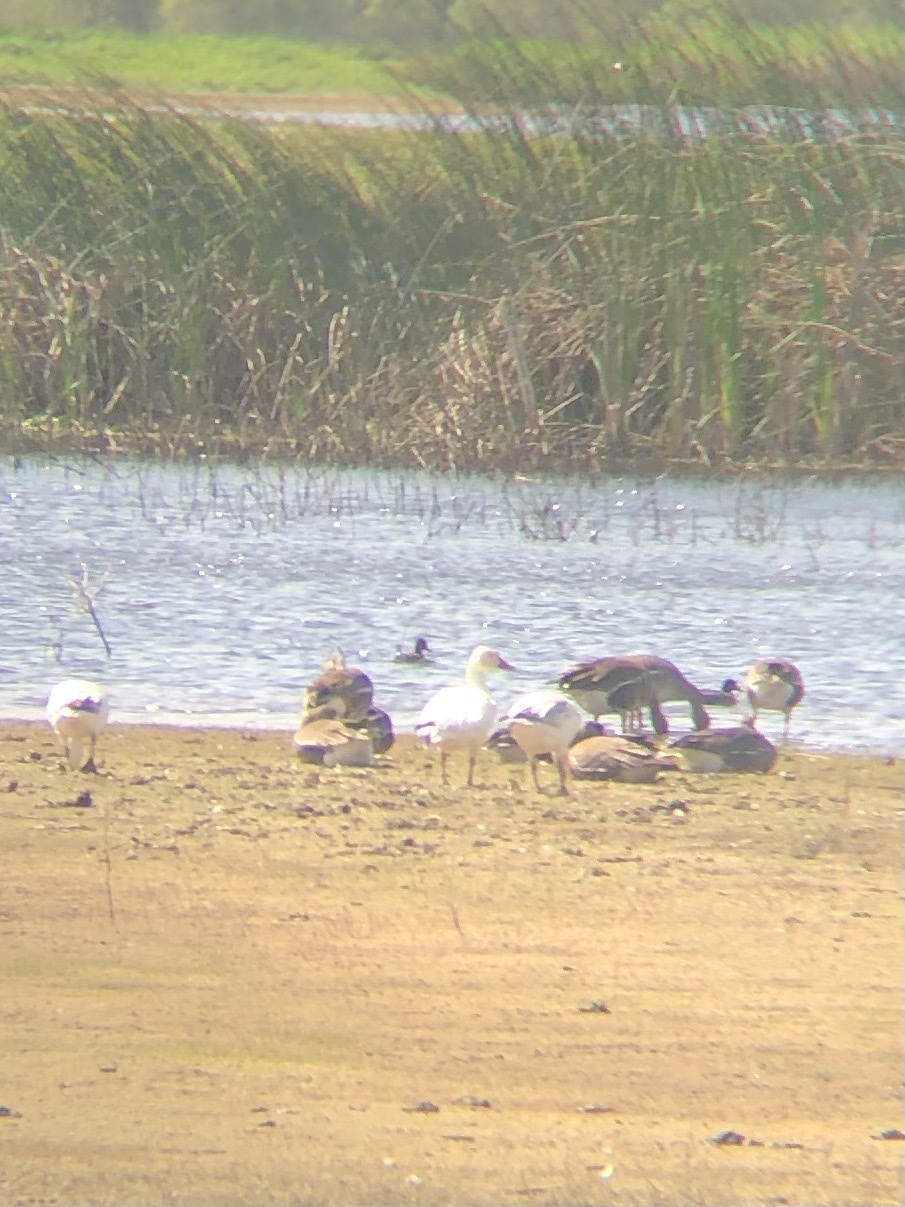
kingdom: Animalia
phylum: Chordata
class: Aves
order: Anseriformes
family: Anatidae
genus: Anser
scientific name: Anser caerulescens
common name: Snow goose
